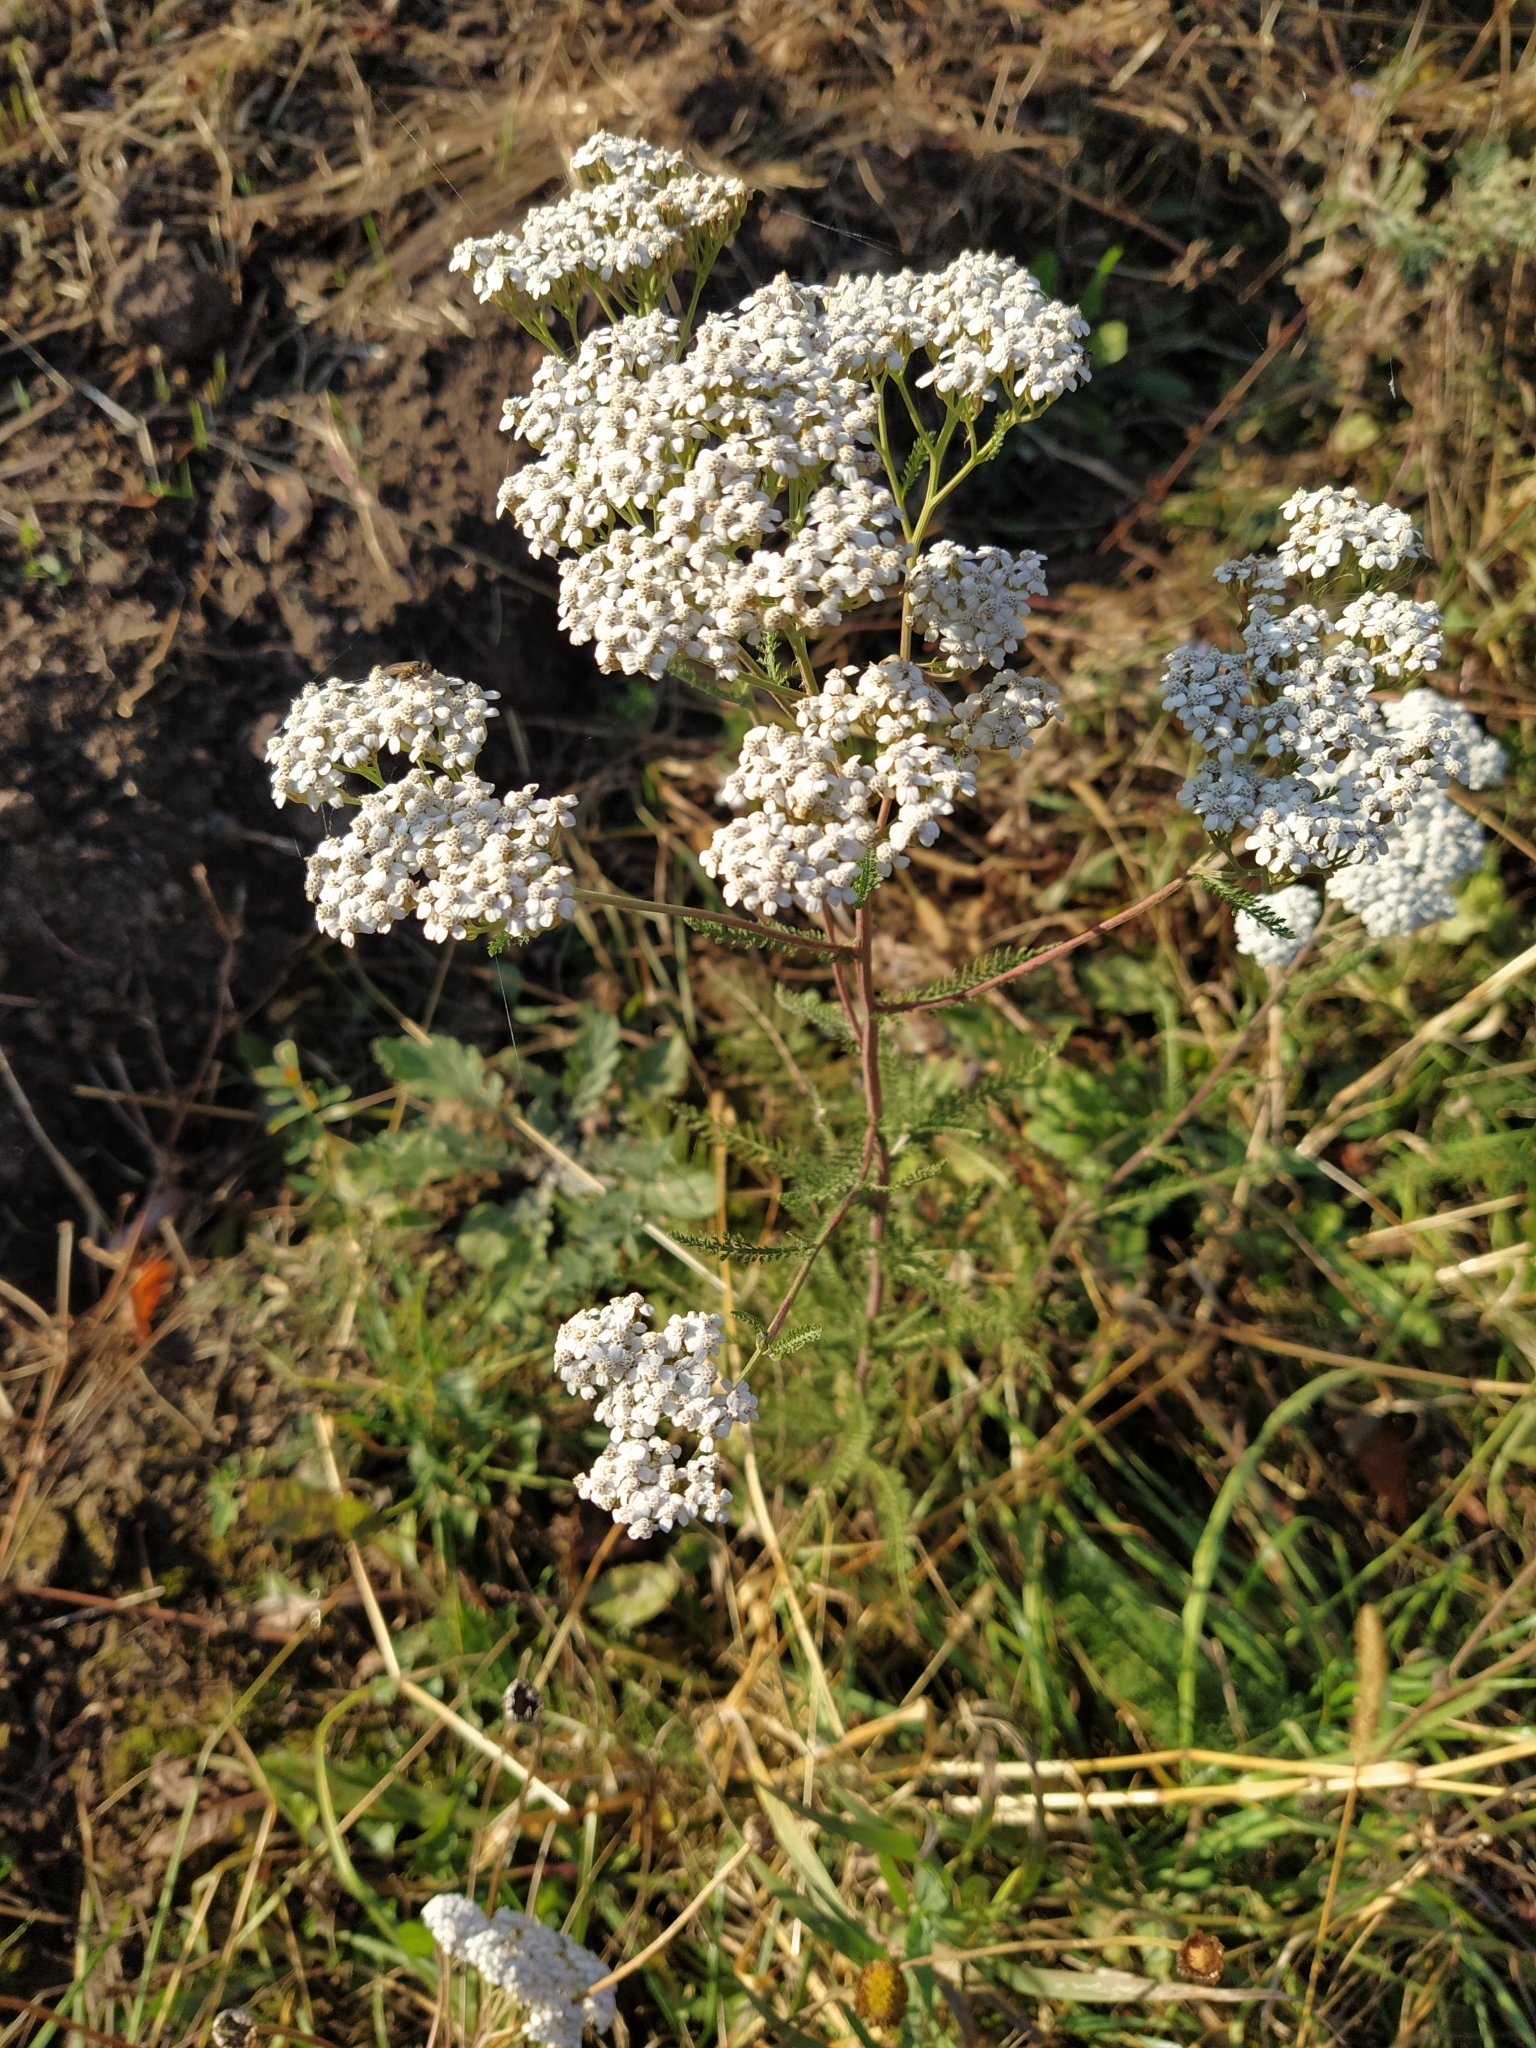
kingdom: Plantae
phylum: Tracheophyta
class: Magnoliopsida
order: Asterales
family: Asteraceae
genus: Achillea
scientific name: Achillea millefolium
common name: Yarrow
